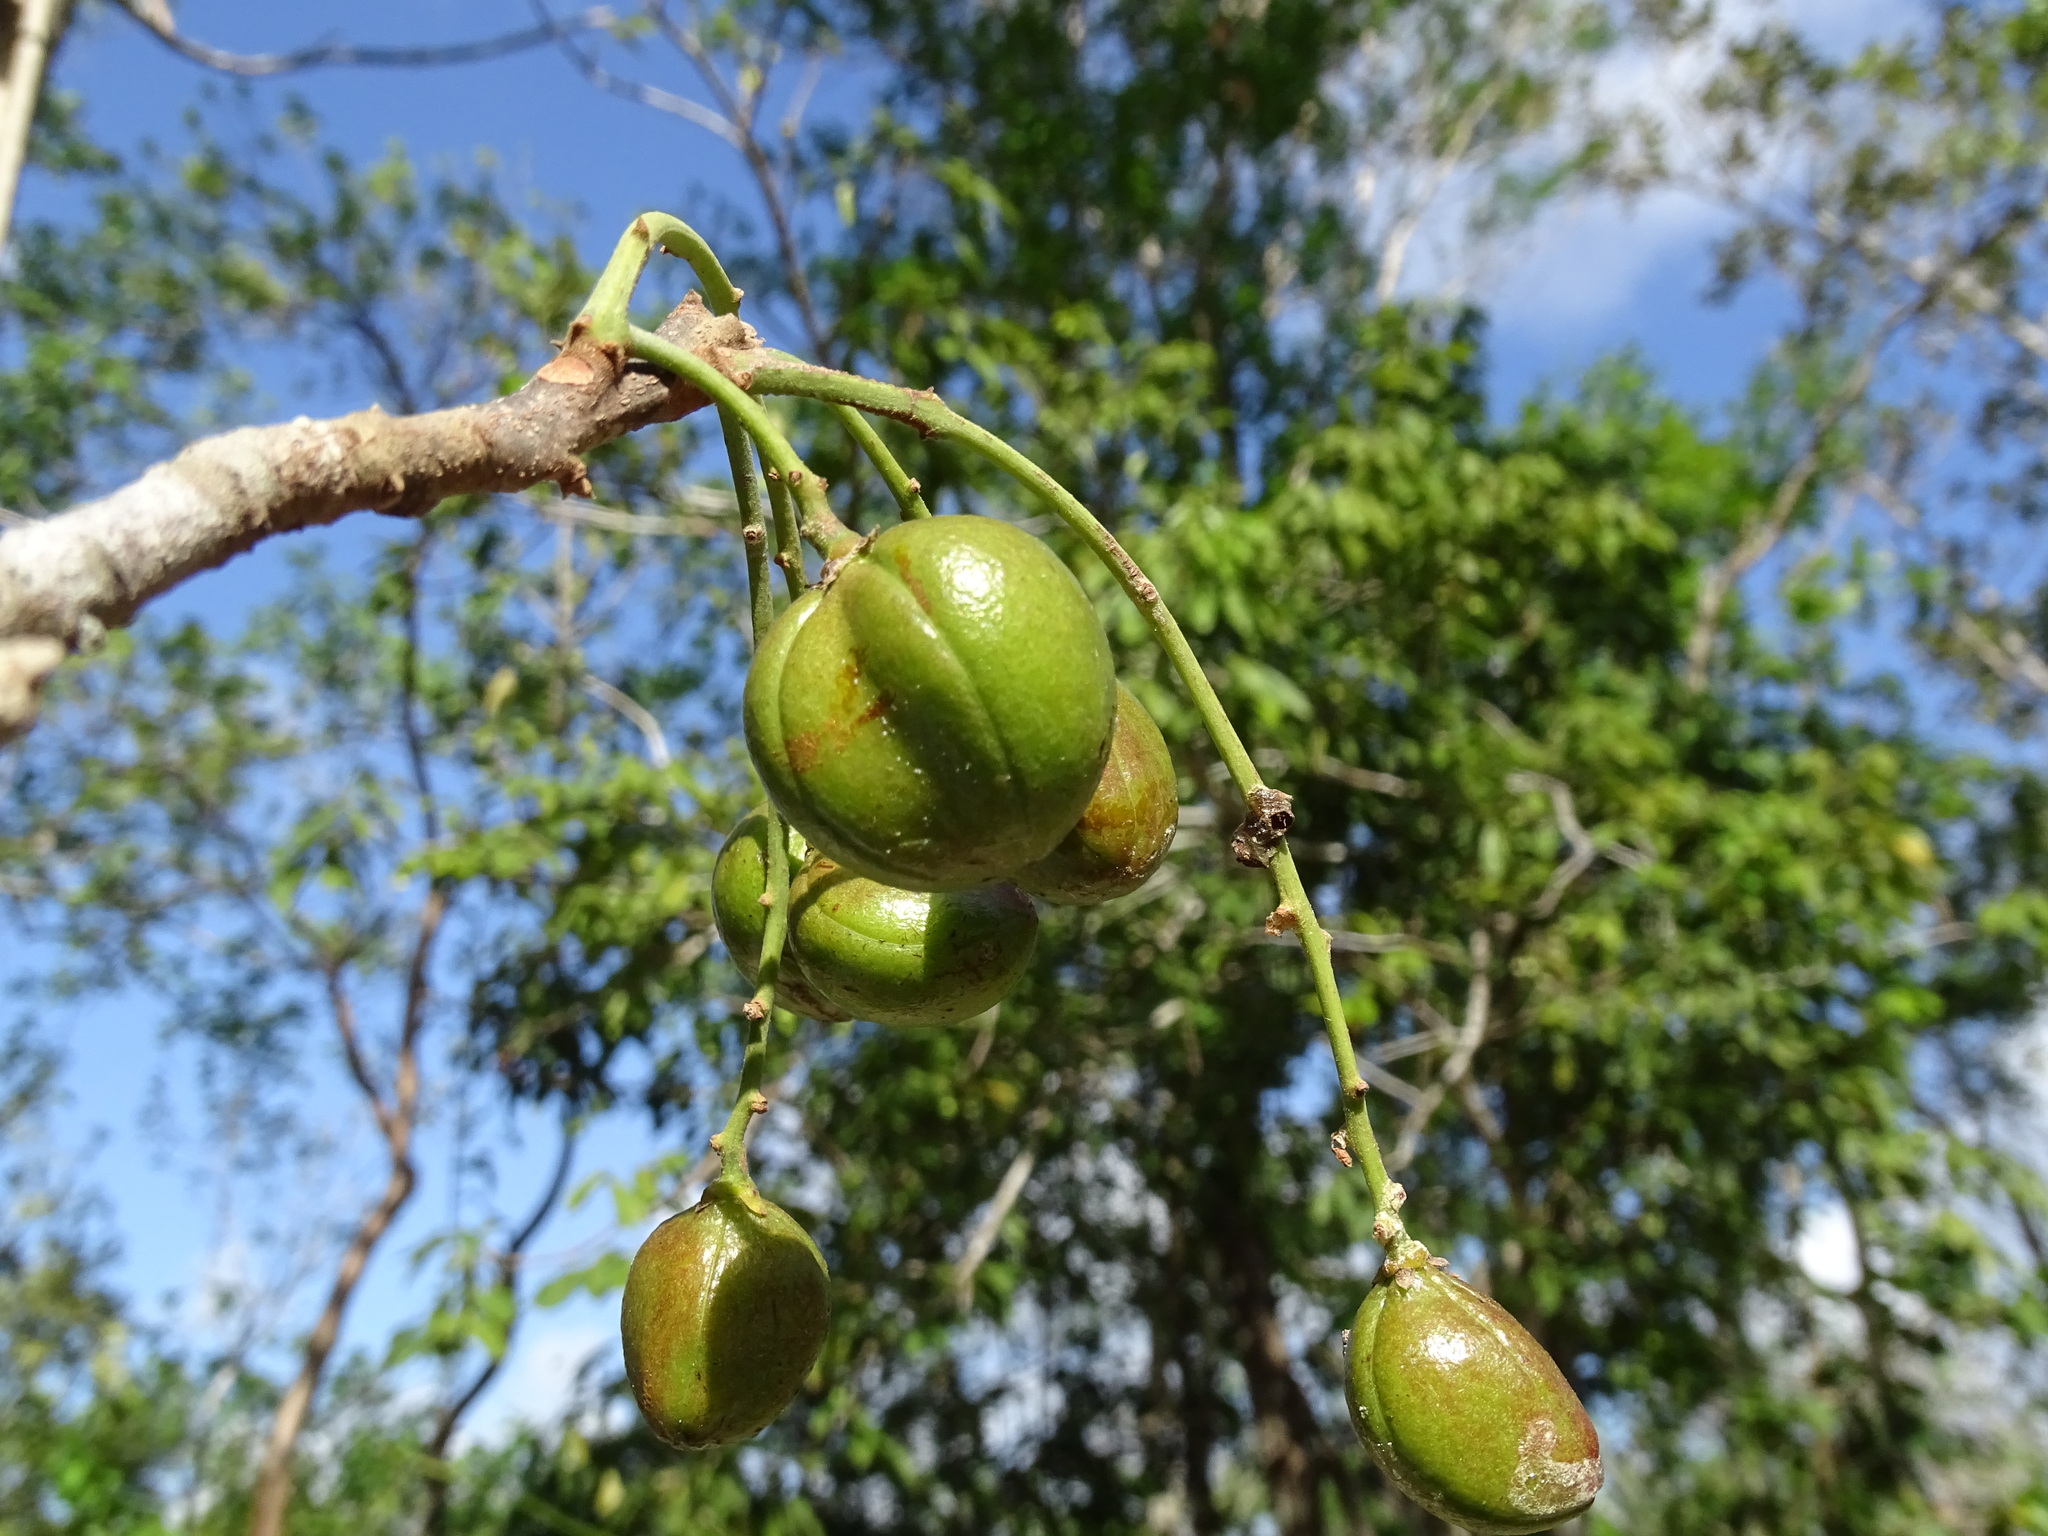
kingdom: Plantae
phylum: Tracheophyta
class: Magnoliopsida
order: Sapindales
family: Burseraceae
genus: Protium
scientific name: Protium copal
